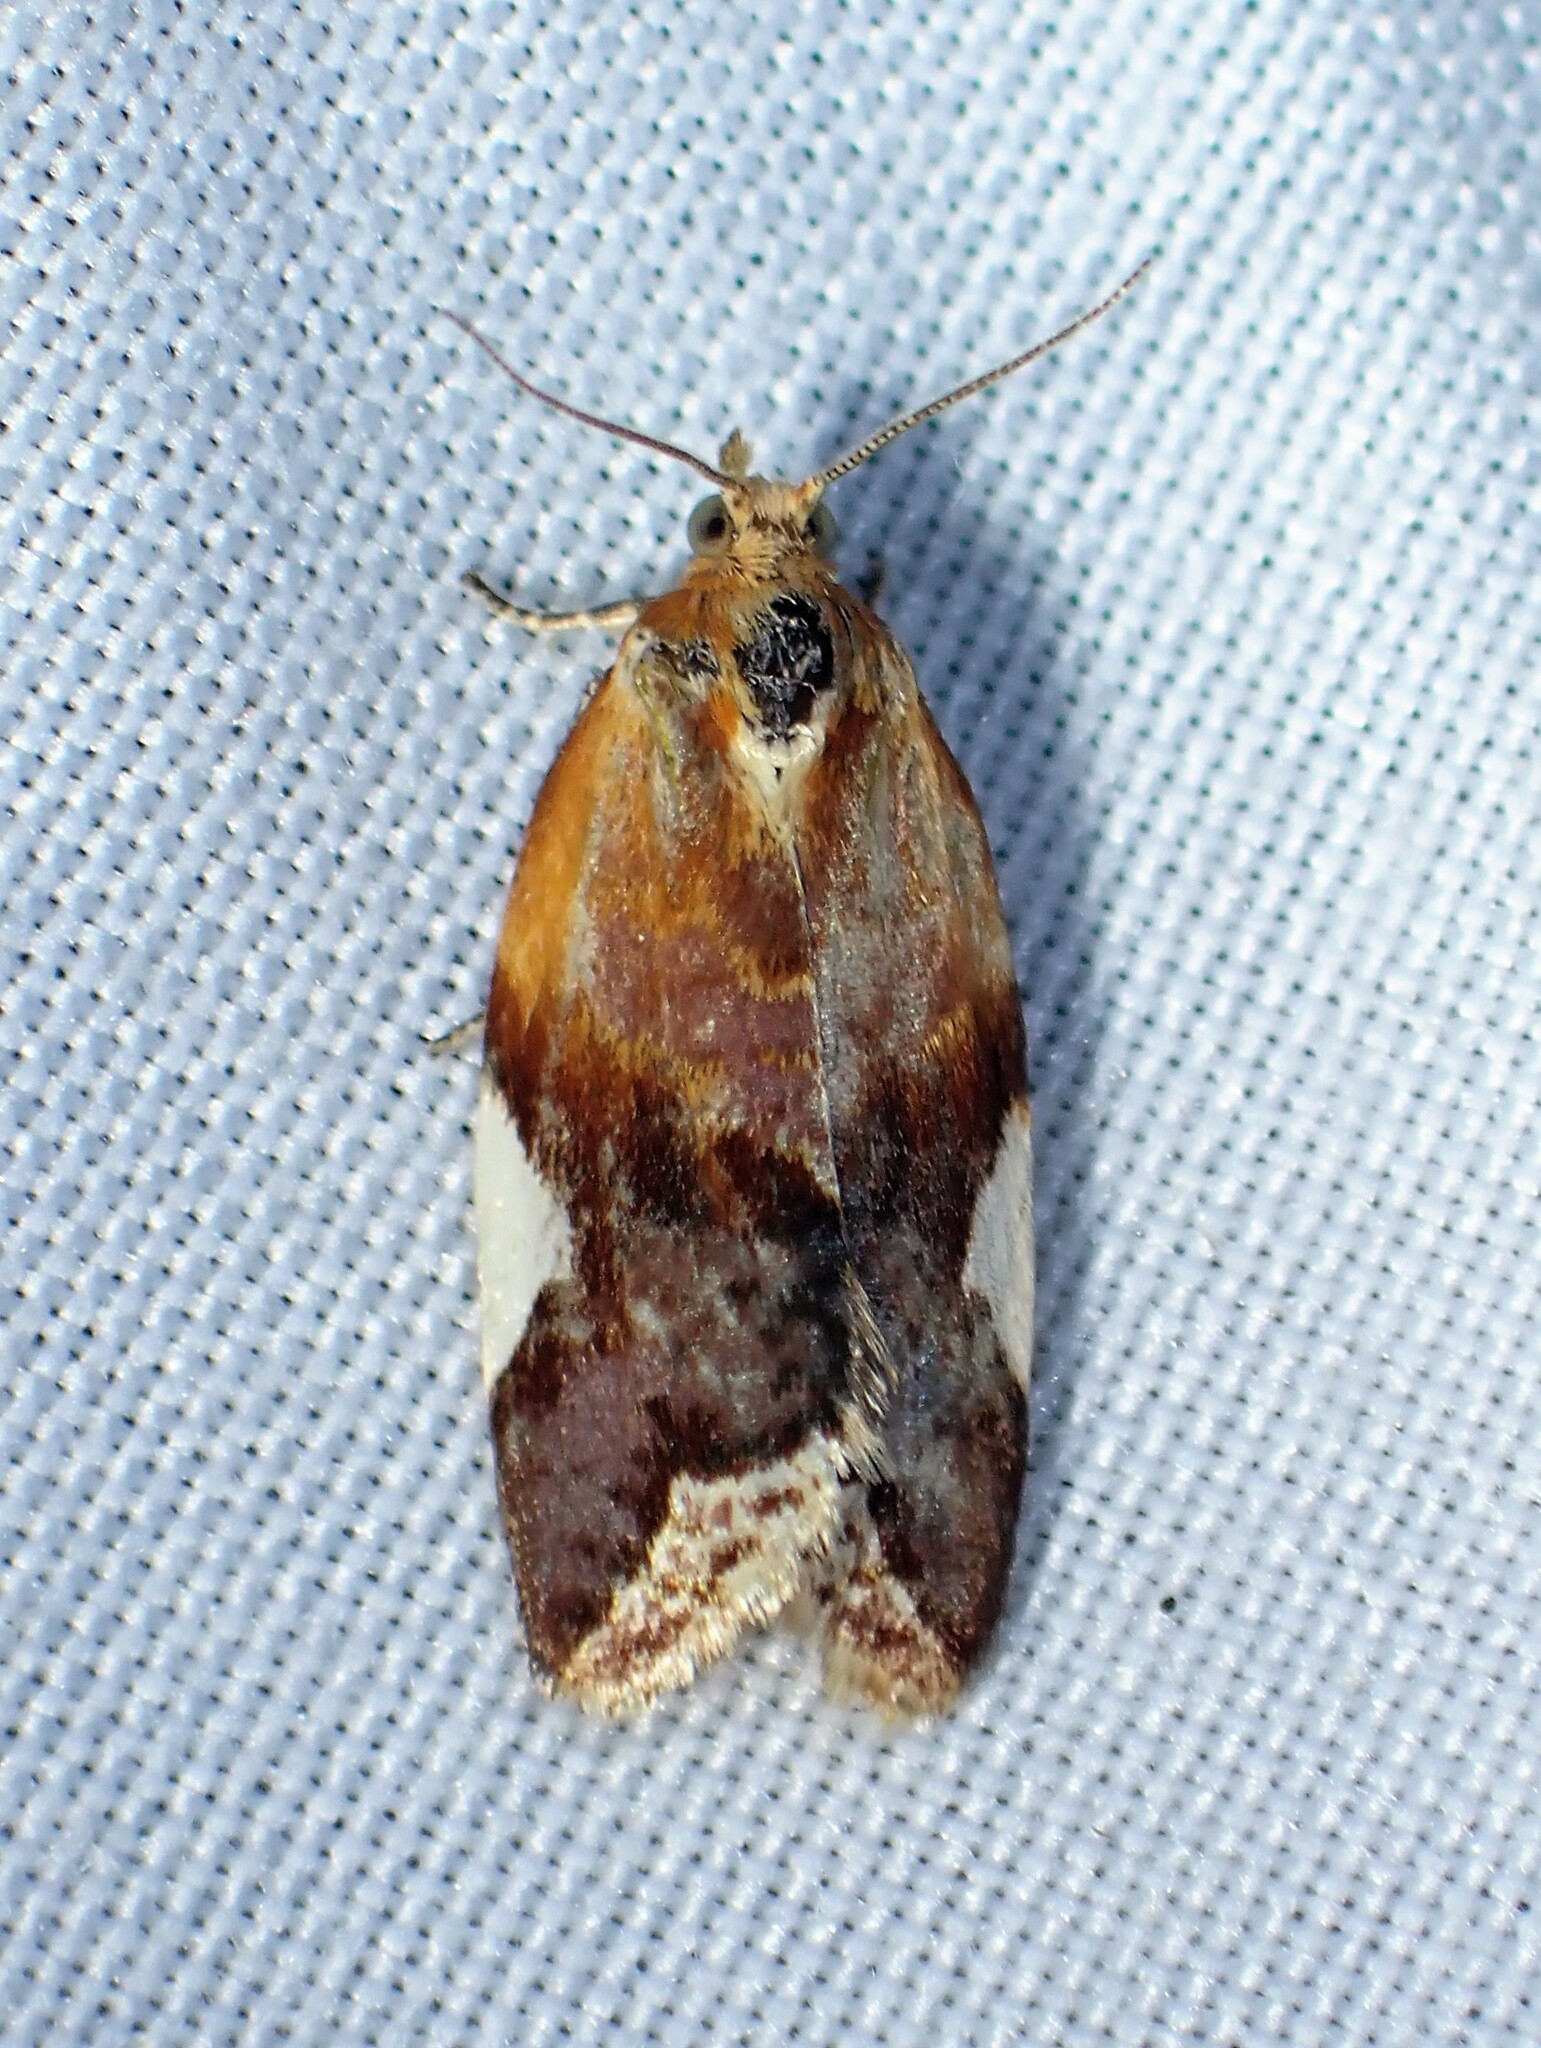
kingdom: Animalia
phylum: Arthropoda
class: Insecta
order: Lepidoptera
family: Tortricidae
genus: Clepsis
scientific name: Clepsis persicana
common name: White triangle tortrix
